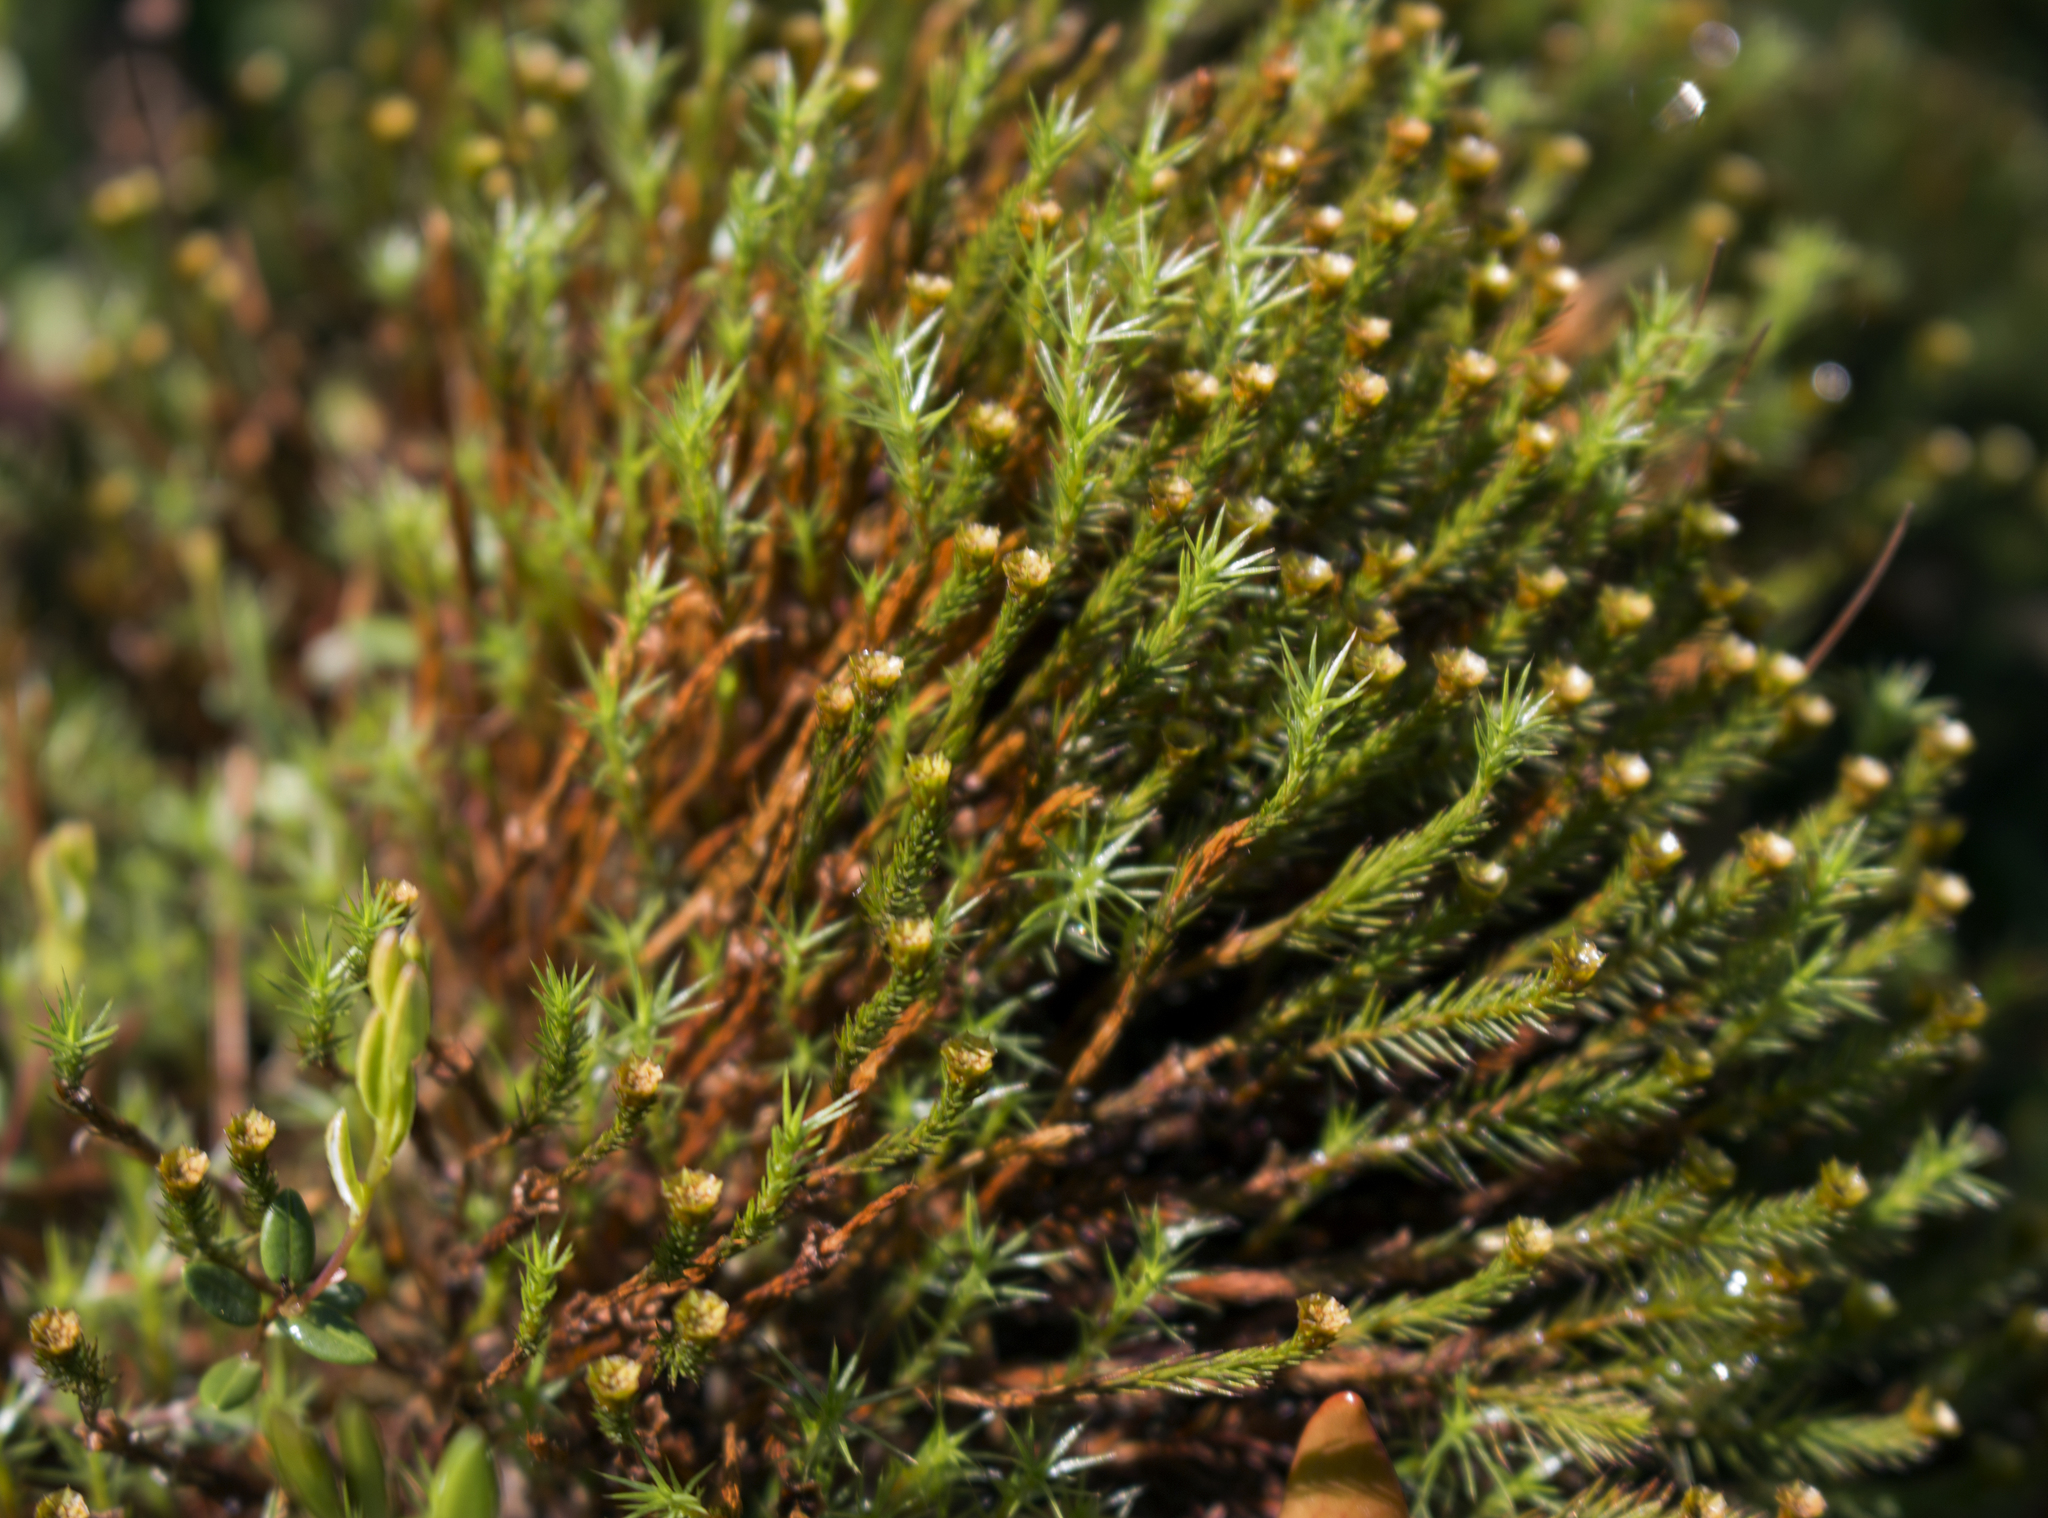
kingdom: Plantae
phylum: Bryophyta
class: Polytrichopsida
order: Polytrichales
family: Polytrichaceae
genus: Polytrichum
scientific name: Polytrichum strictum
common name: Bog haircap moss
